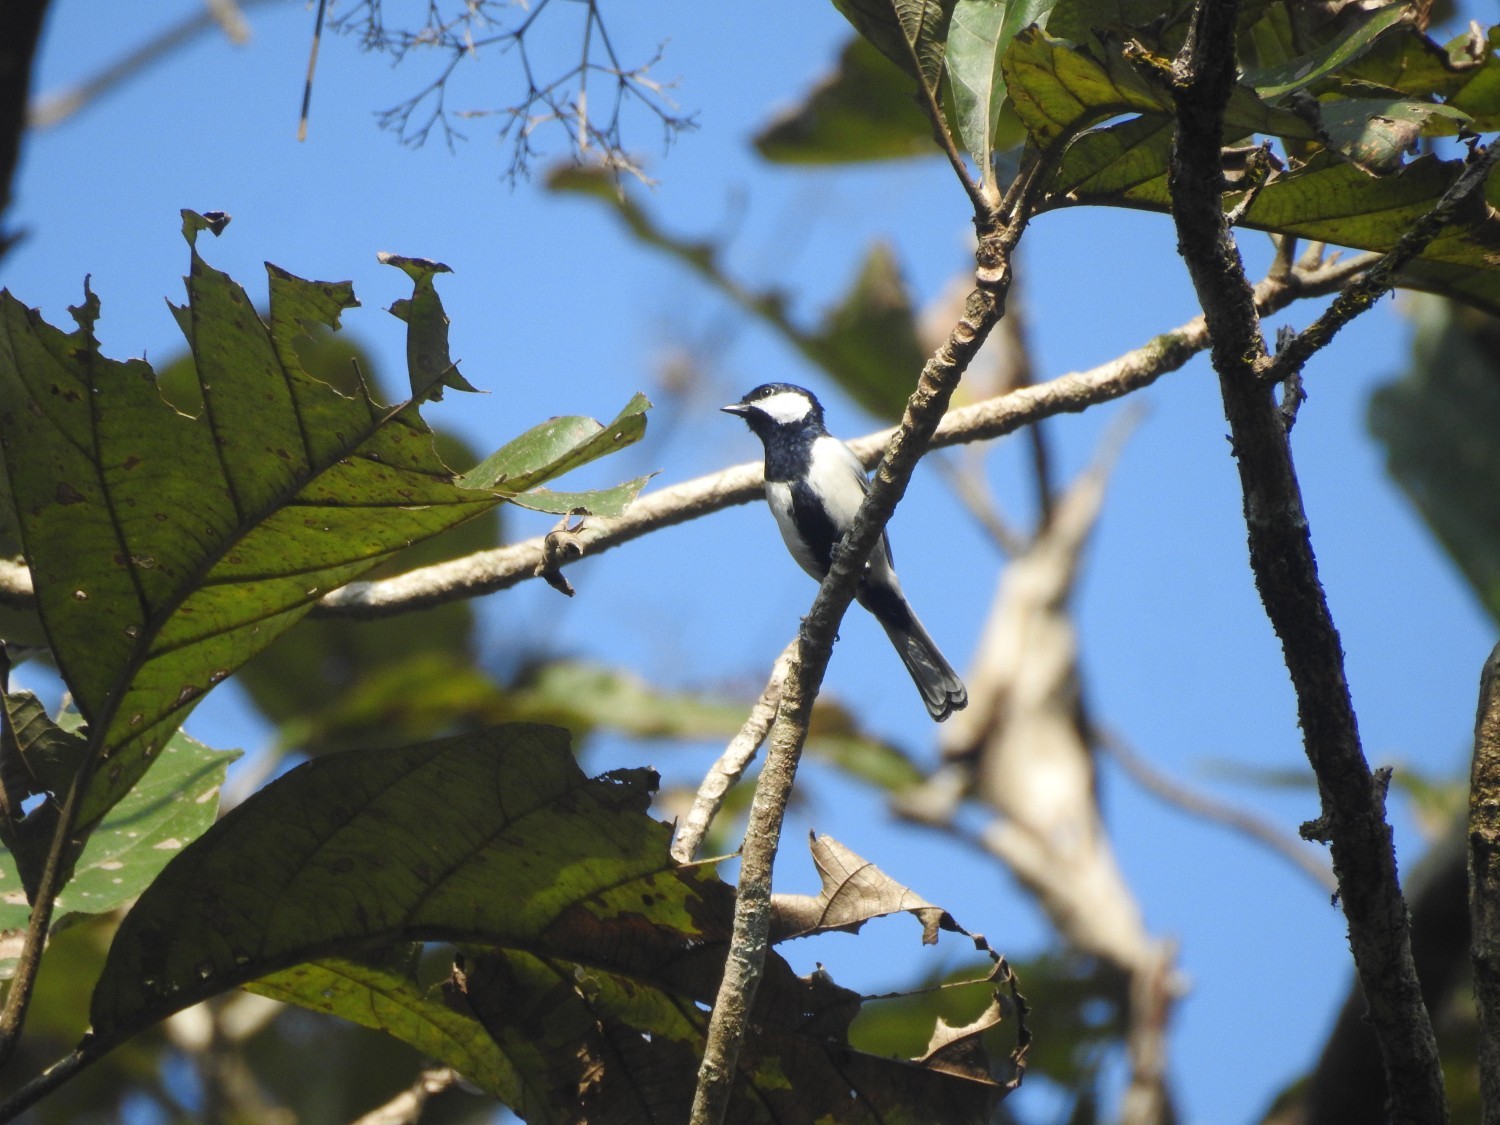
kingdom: Animalia
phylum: Chordata
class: Aves
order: Passeriformes
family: Paridae
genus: Parus
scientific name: Parus cinereus
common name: Cinereous tit
